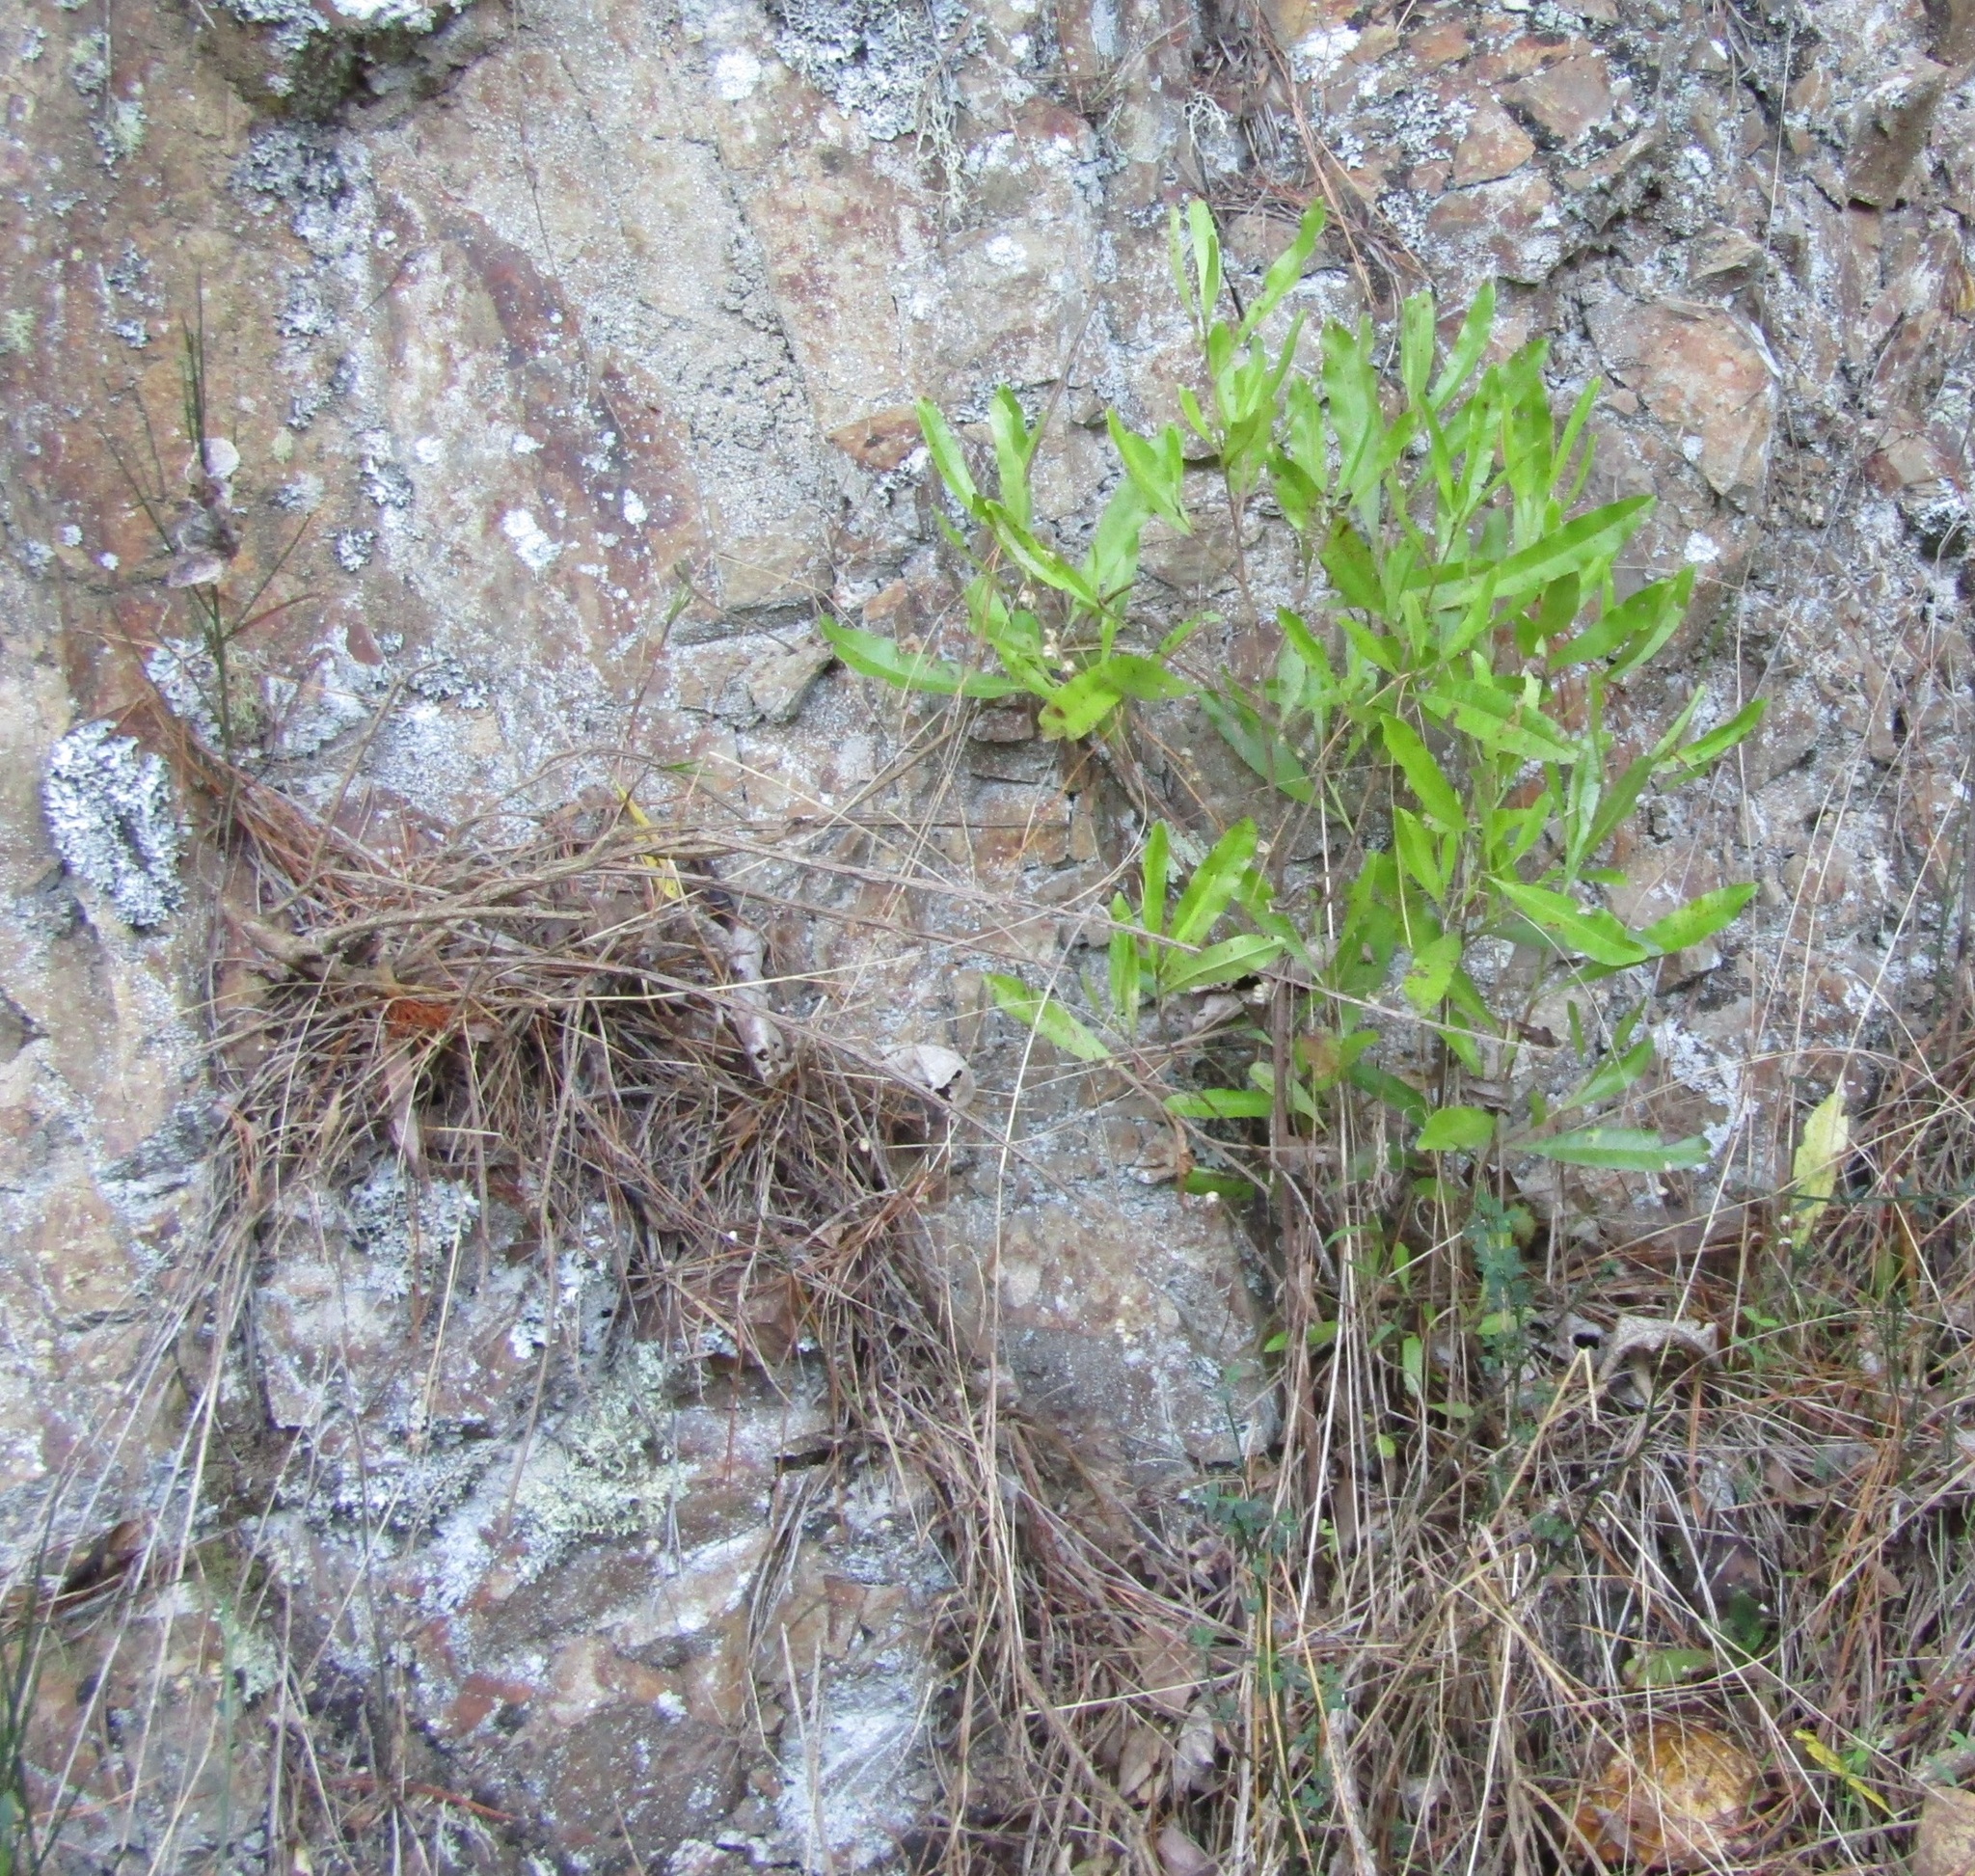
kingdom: Plantae
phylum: Tracheophyta
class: Magnoliopsida
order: Sapindales
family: Sapindaceae
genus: Dodonaea
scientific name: Dodonaea viscosa
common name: Hopbush
